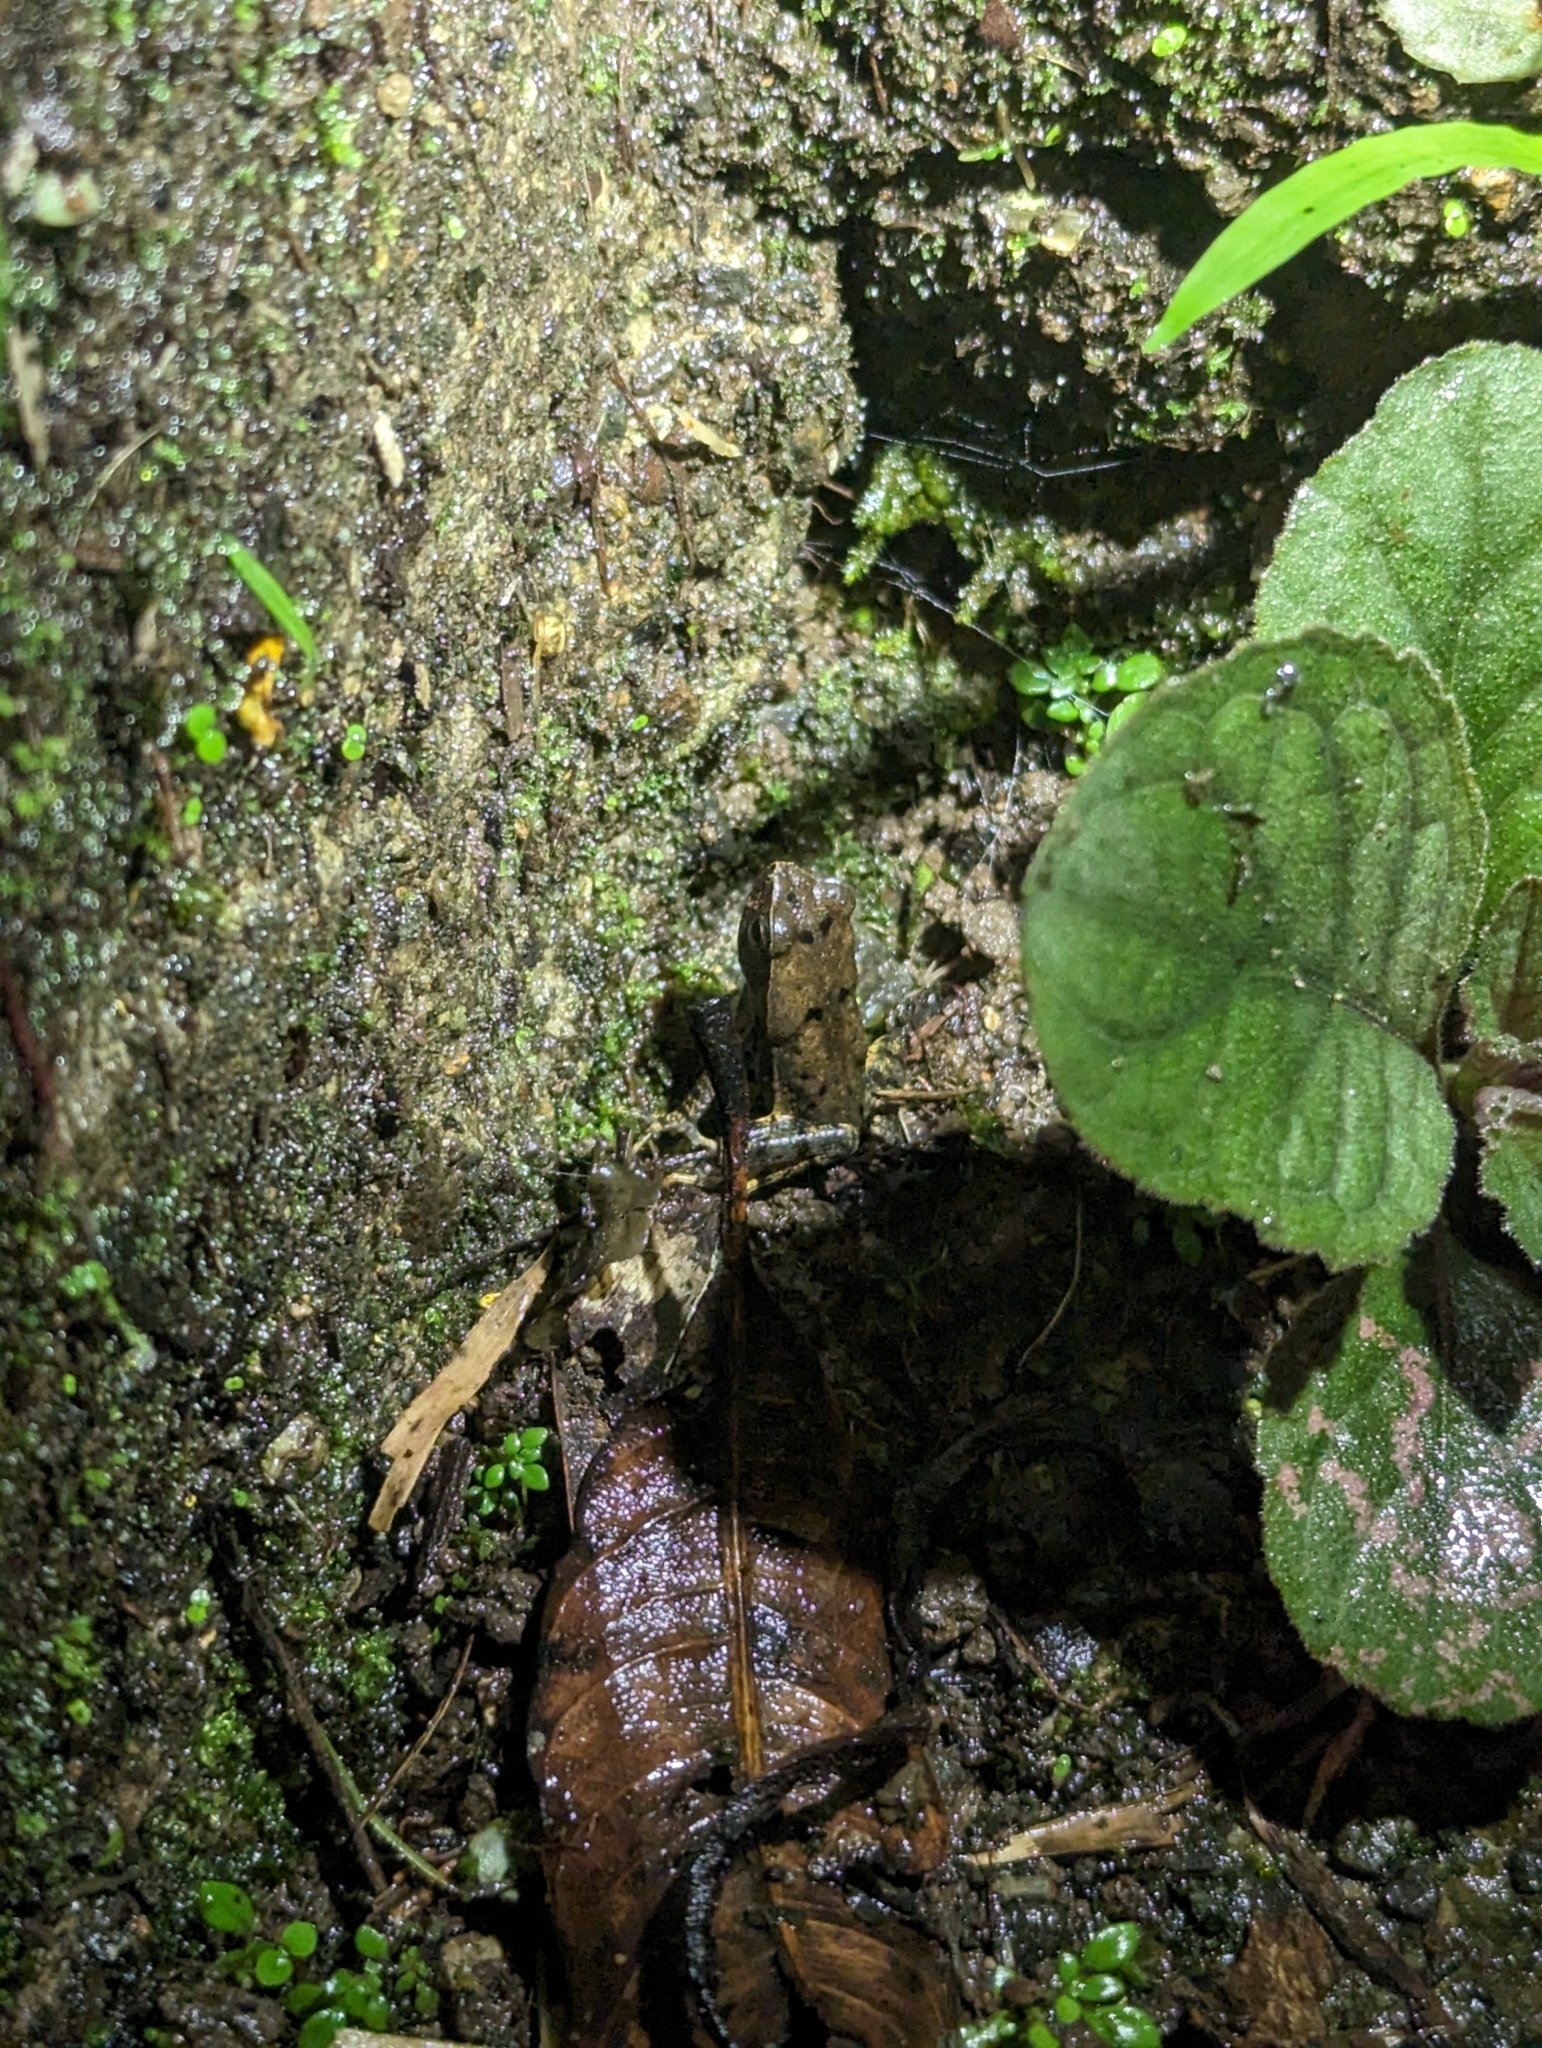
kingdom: Animalia
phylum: Chordata
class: Amphibia
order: Anura
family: Bufonidae
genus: Rhaebo
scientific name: Rhaebo haematiticus
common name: Truando toad
